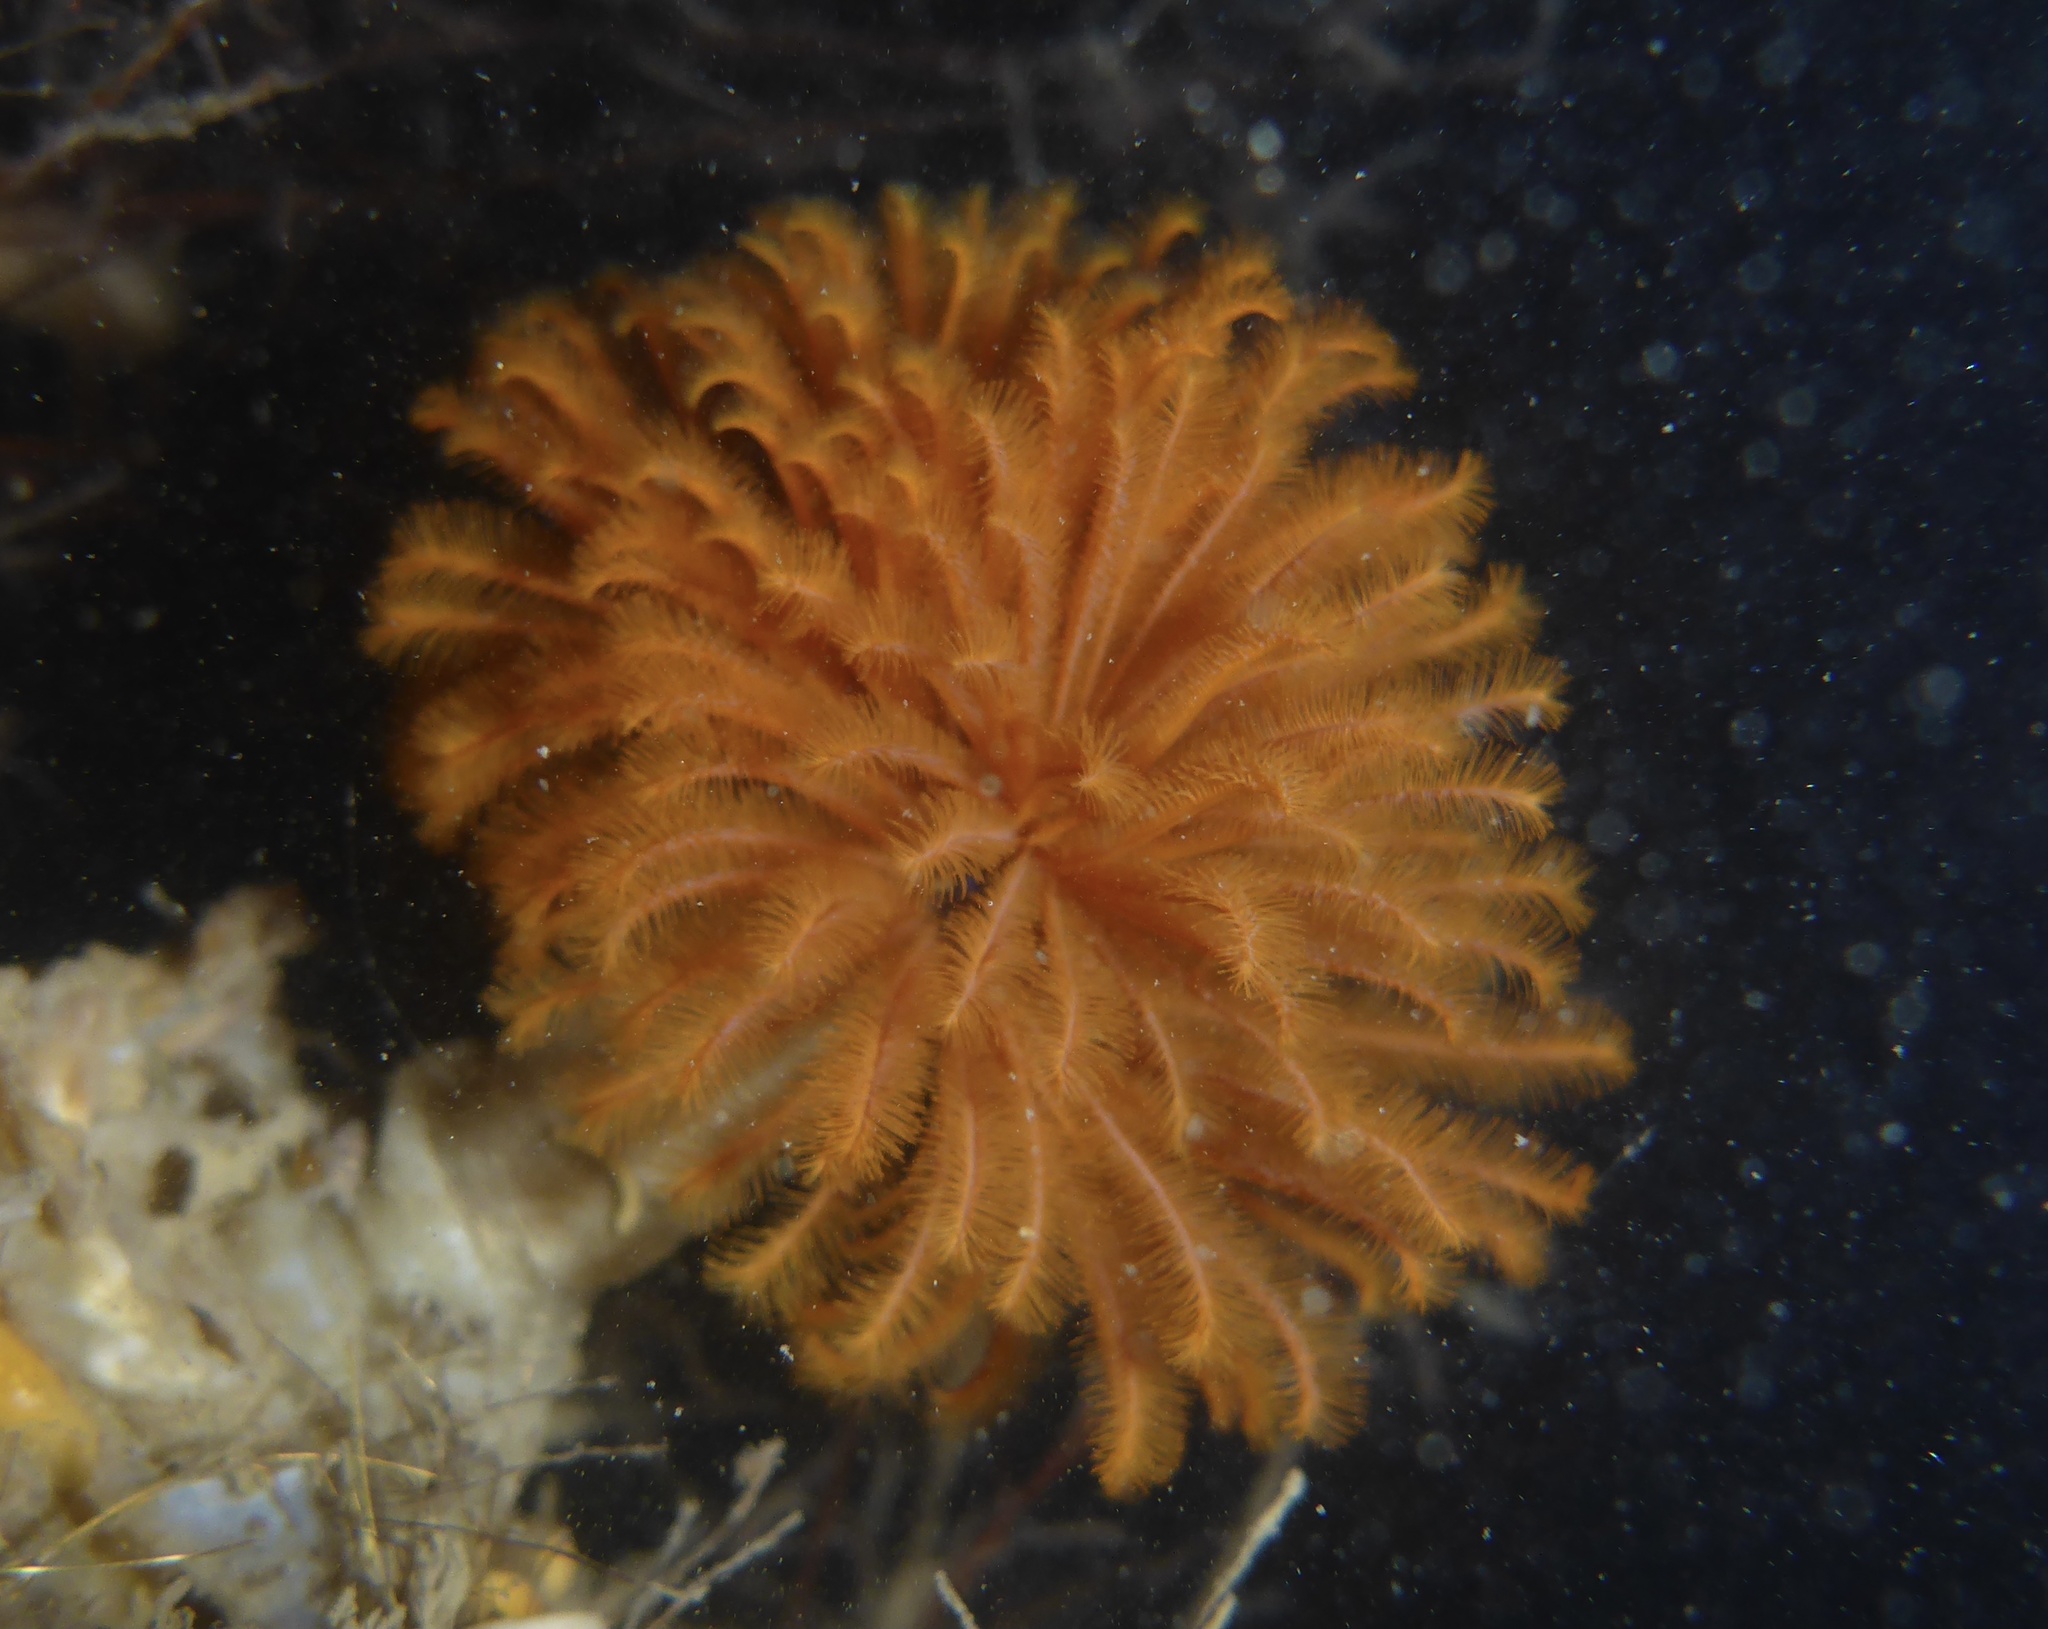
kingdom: Animalia
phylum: Annelida
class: Polychaeta
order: Sabellida
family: Sabellidae
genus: Eudistylia
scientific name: Eudistylia polymorpha
